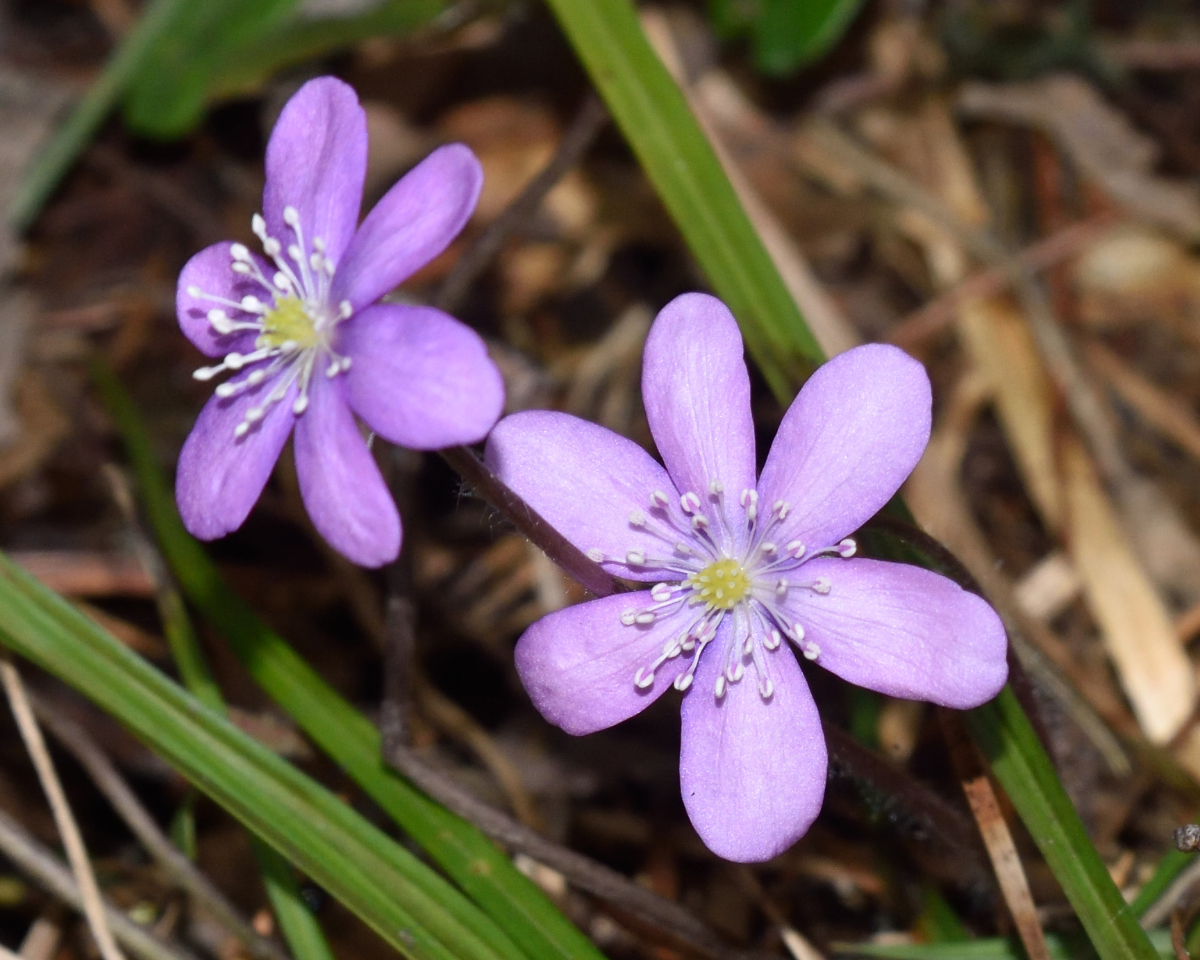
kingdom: Plantae
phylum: Tracheophyta
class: Magnoliopsida
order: Ranunculales
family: Ranunculaceae
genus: Hepatica
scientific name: Hepatica nobilis
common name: Liverleaf
